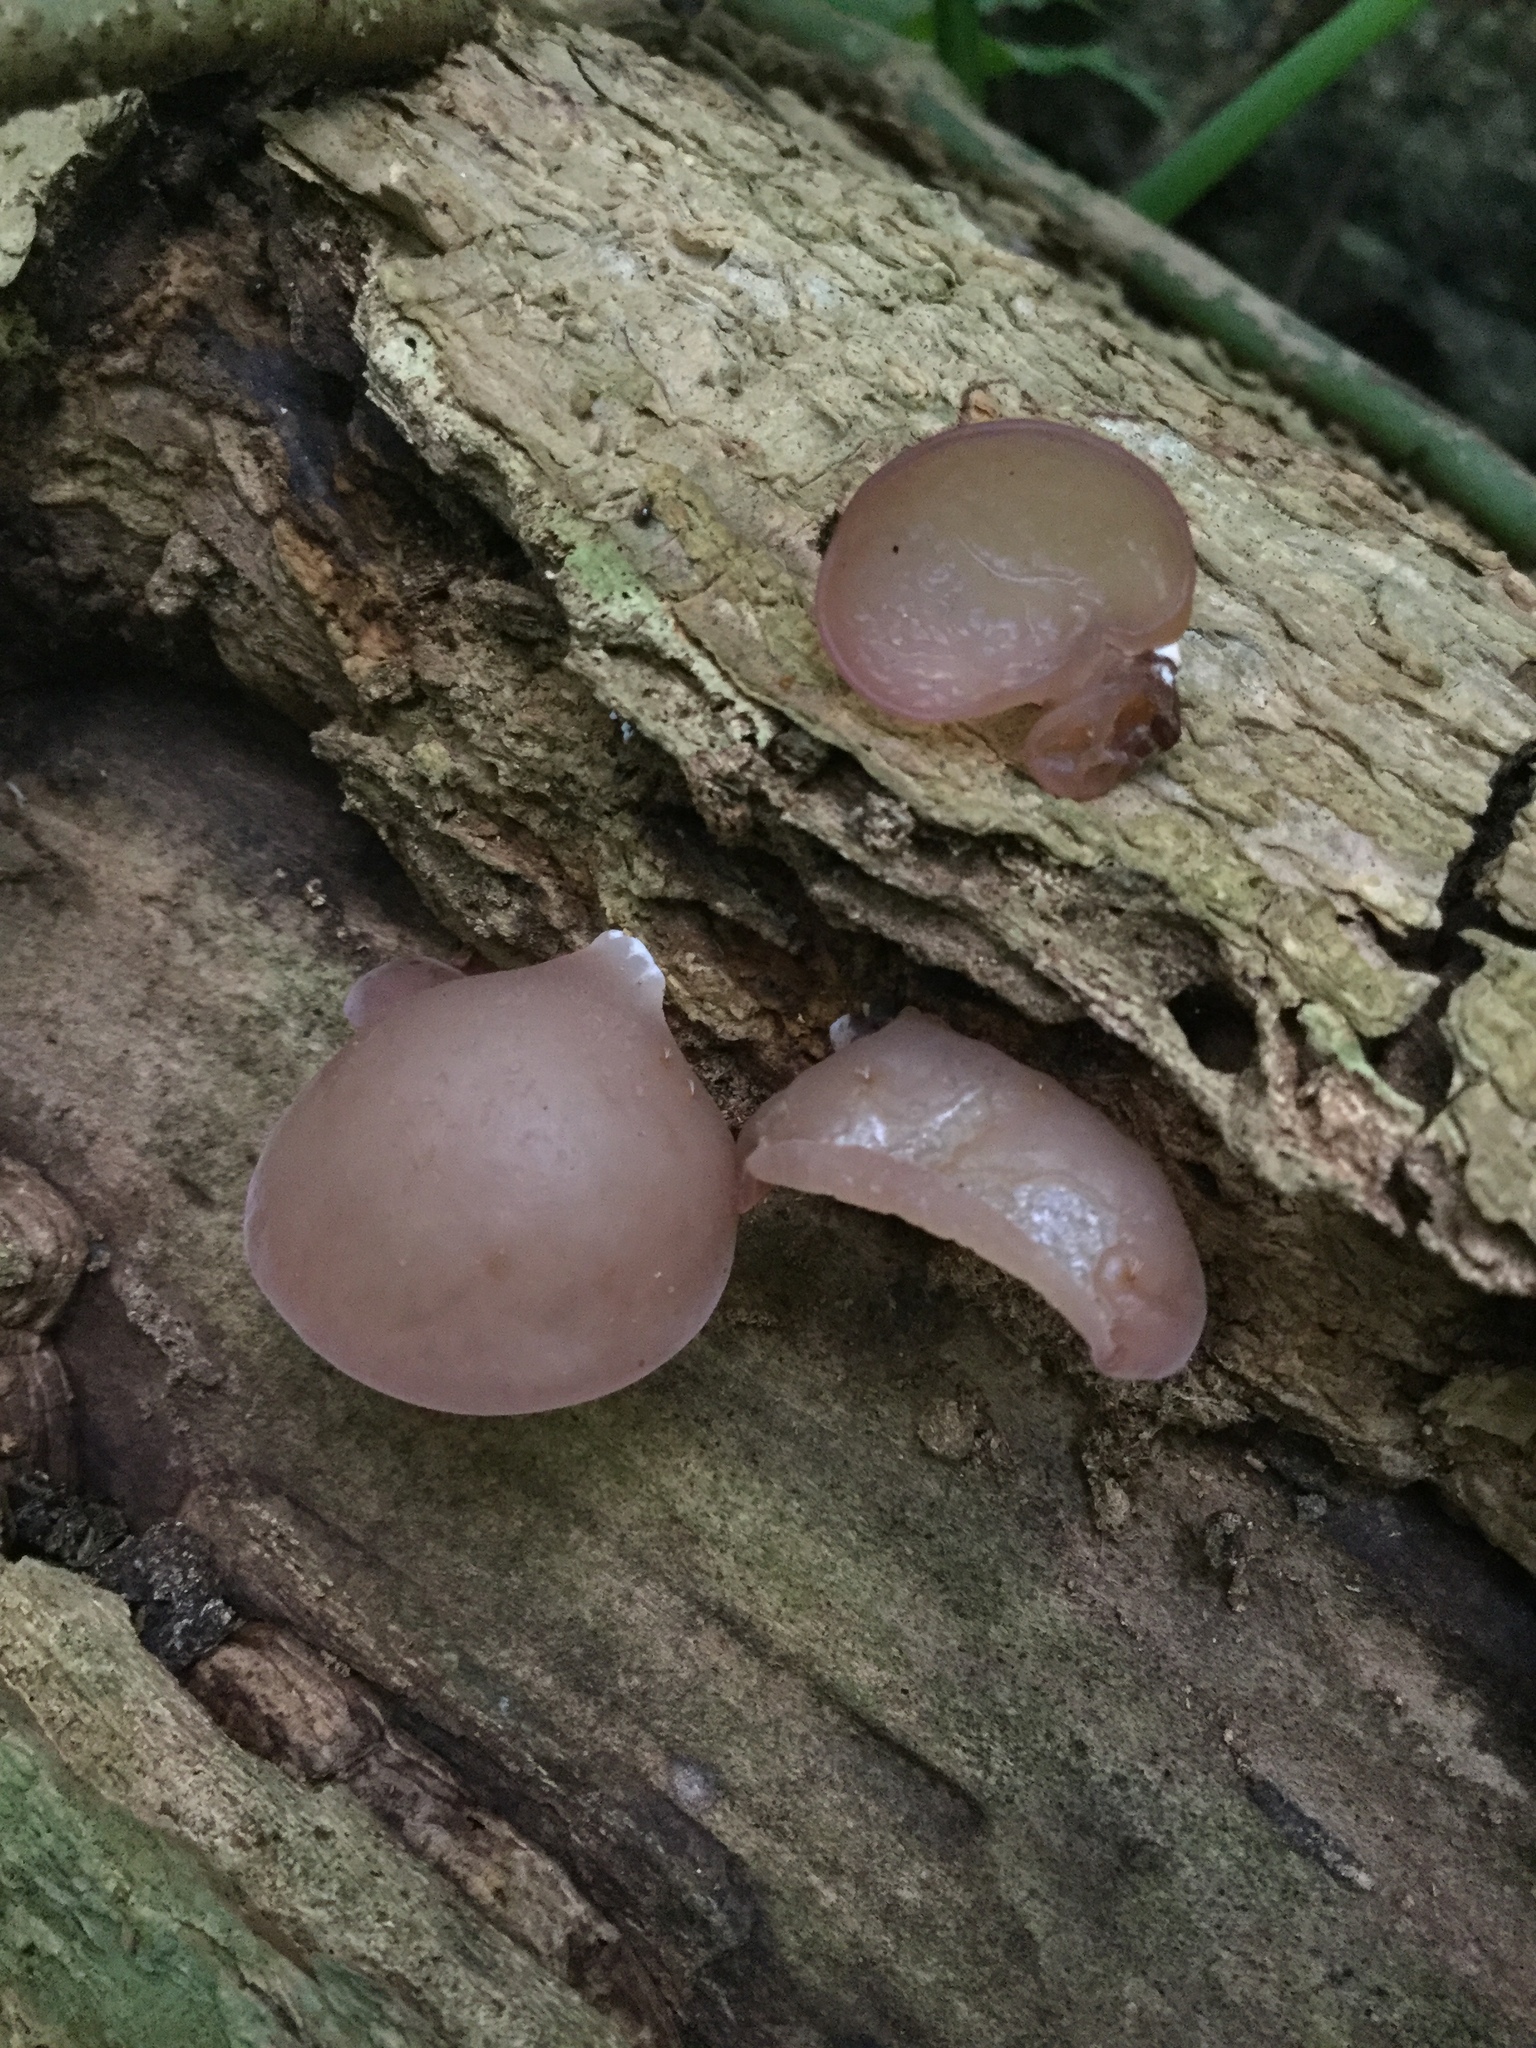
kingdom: Fungi
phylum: Basidiomycota
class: Agaricomycetes
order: Auriculariales
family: Auriculariaceae
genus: Auricularia
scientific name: Auricularia auricula-judae
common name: Jelly ear
